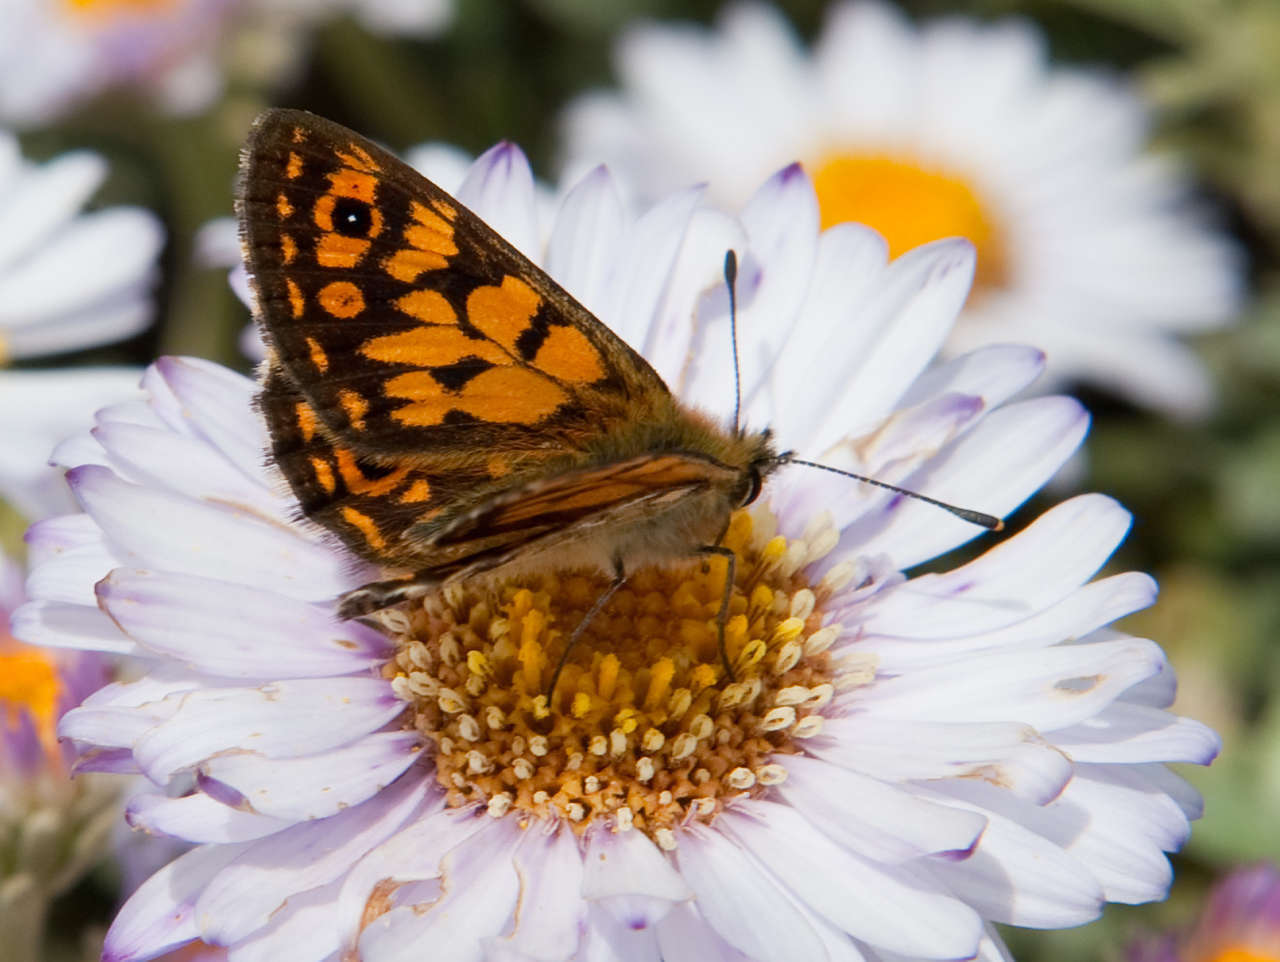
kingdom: Plantae
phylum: Tracheophyta
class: Magnoliopsida
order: Asterales
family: Asteraceae
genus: Olearia
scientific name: Olearia frostii
